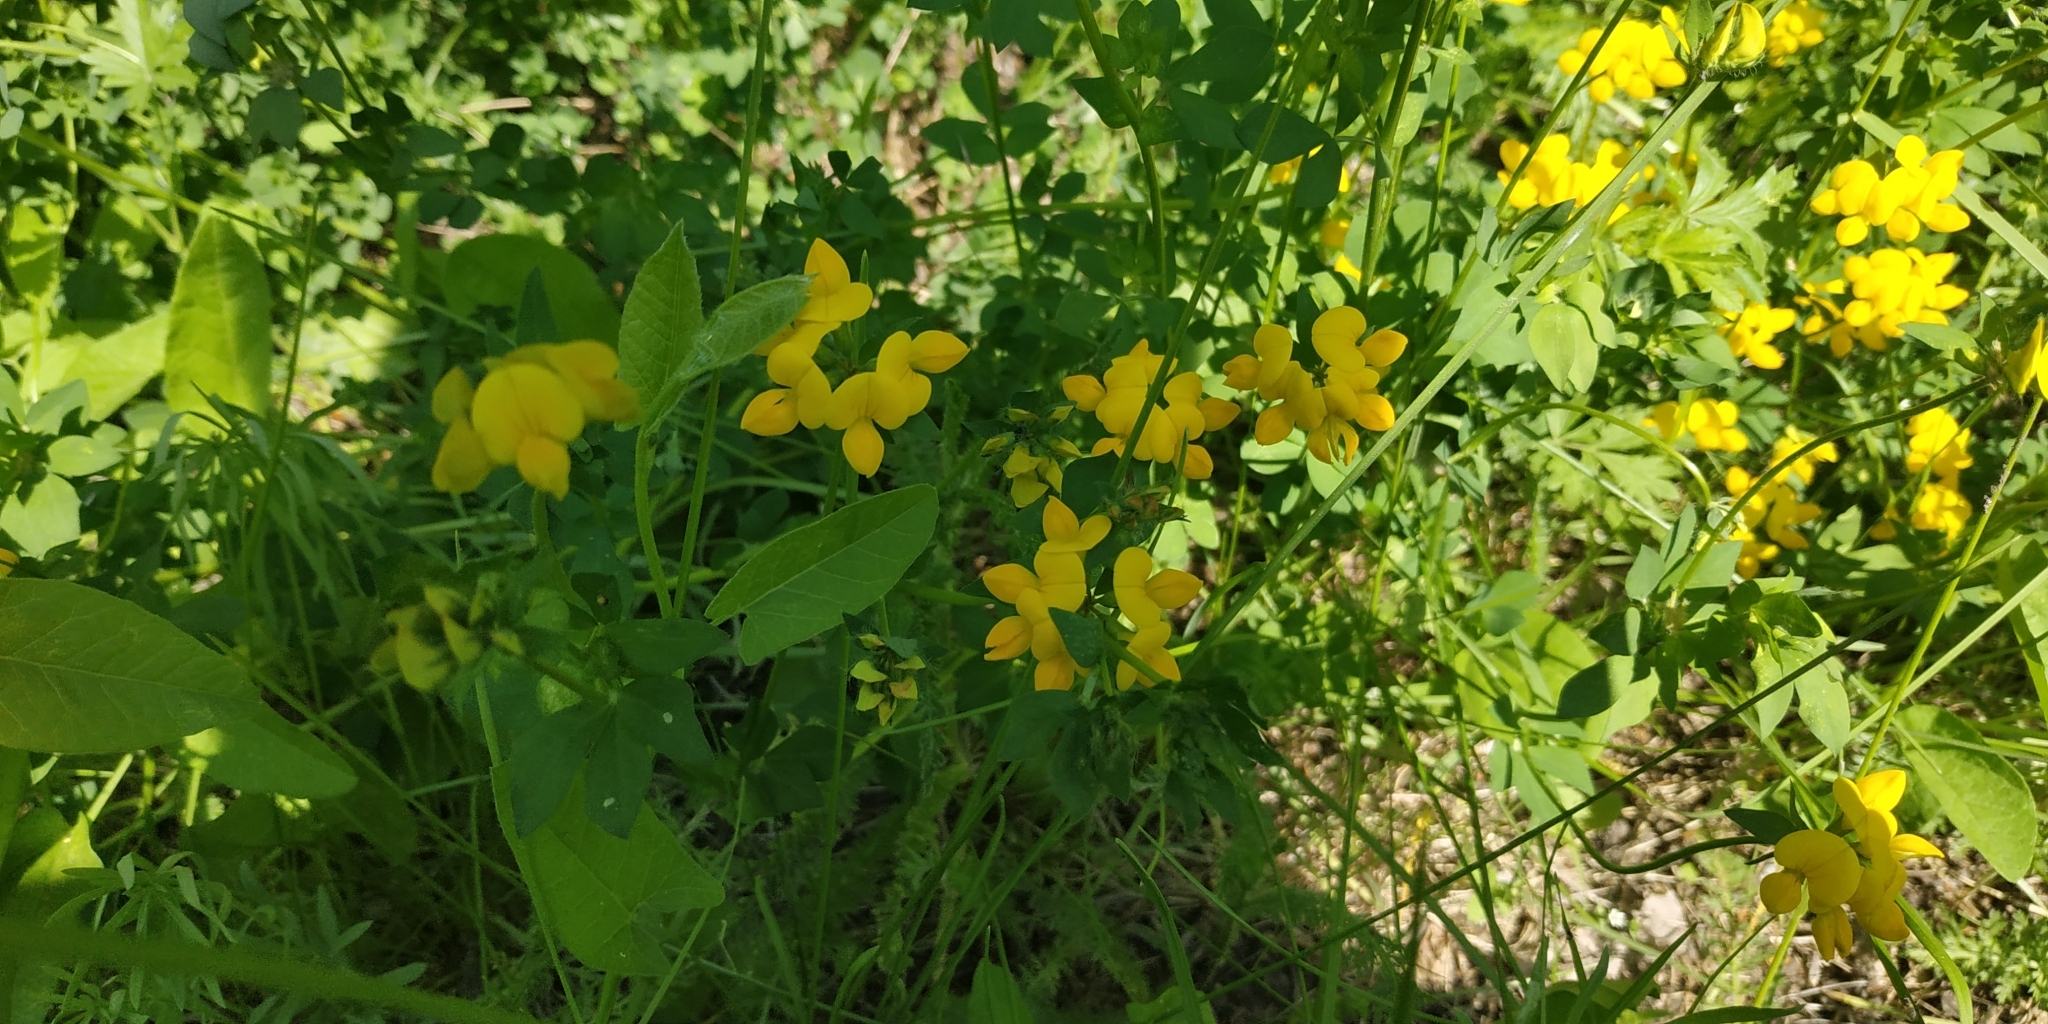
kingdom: Plantae
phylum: Tracheophyta
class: Magnoliopsida
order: Fabales
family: Fabaceae
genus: Lotus
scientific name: Lotus corniculatus
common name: Common bird's-foot-trefoil
